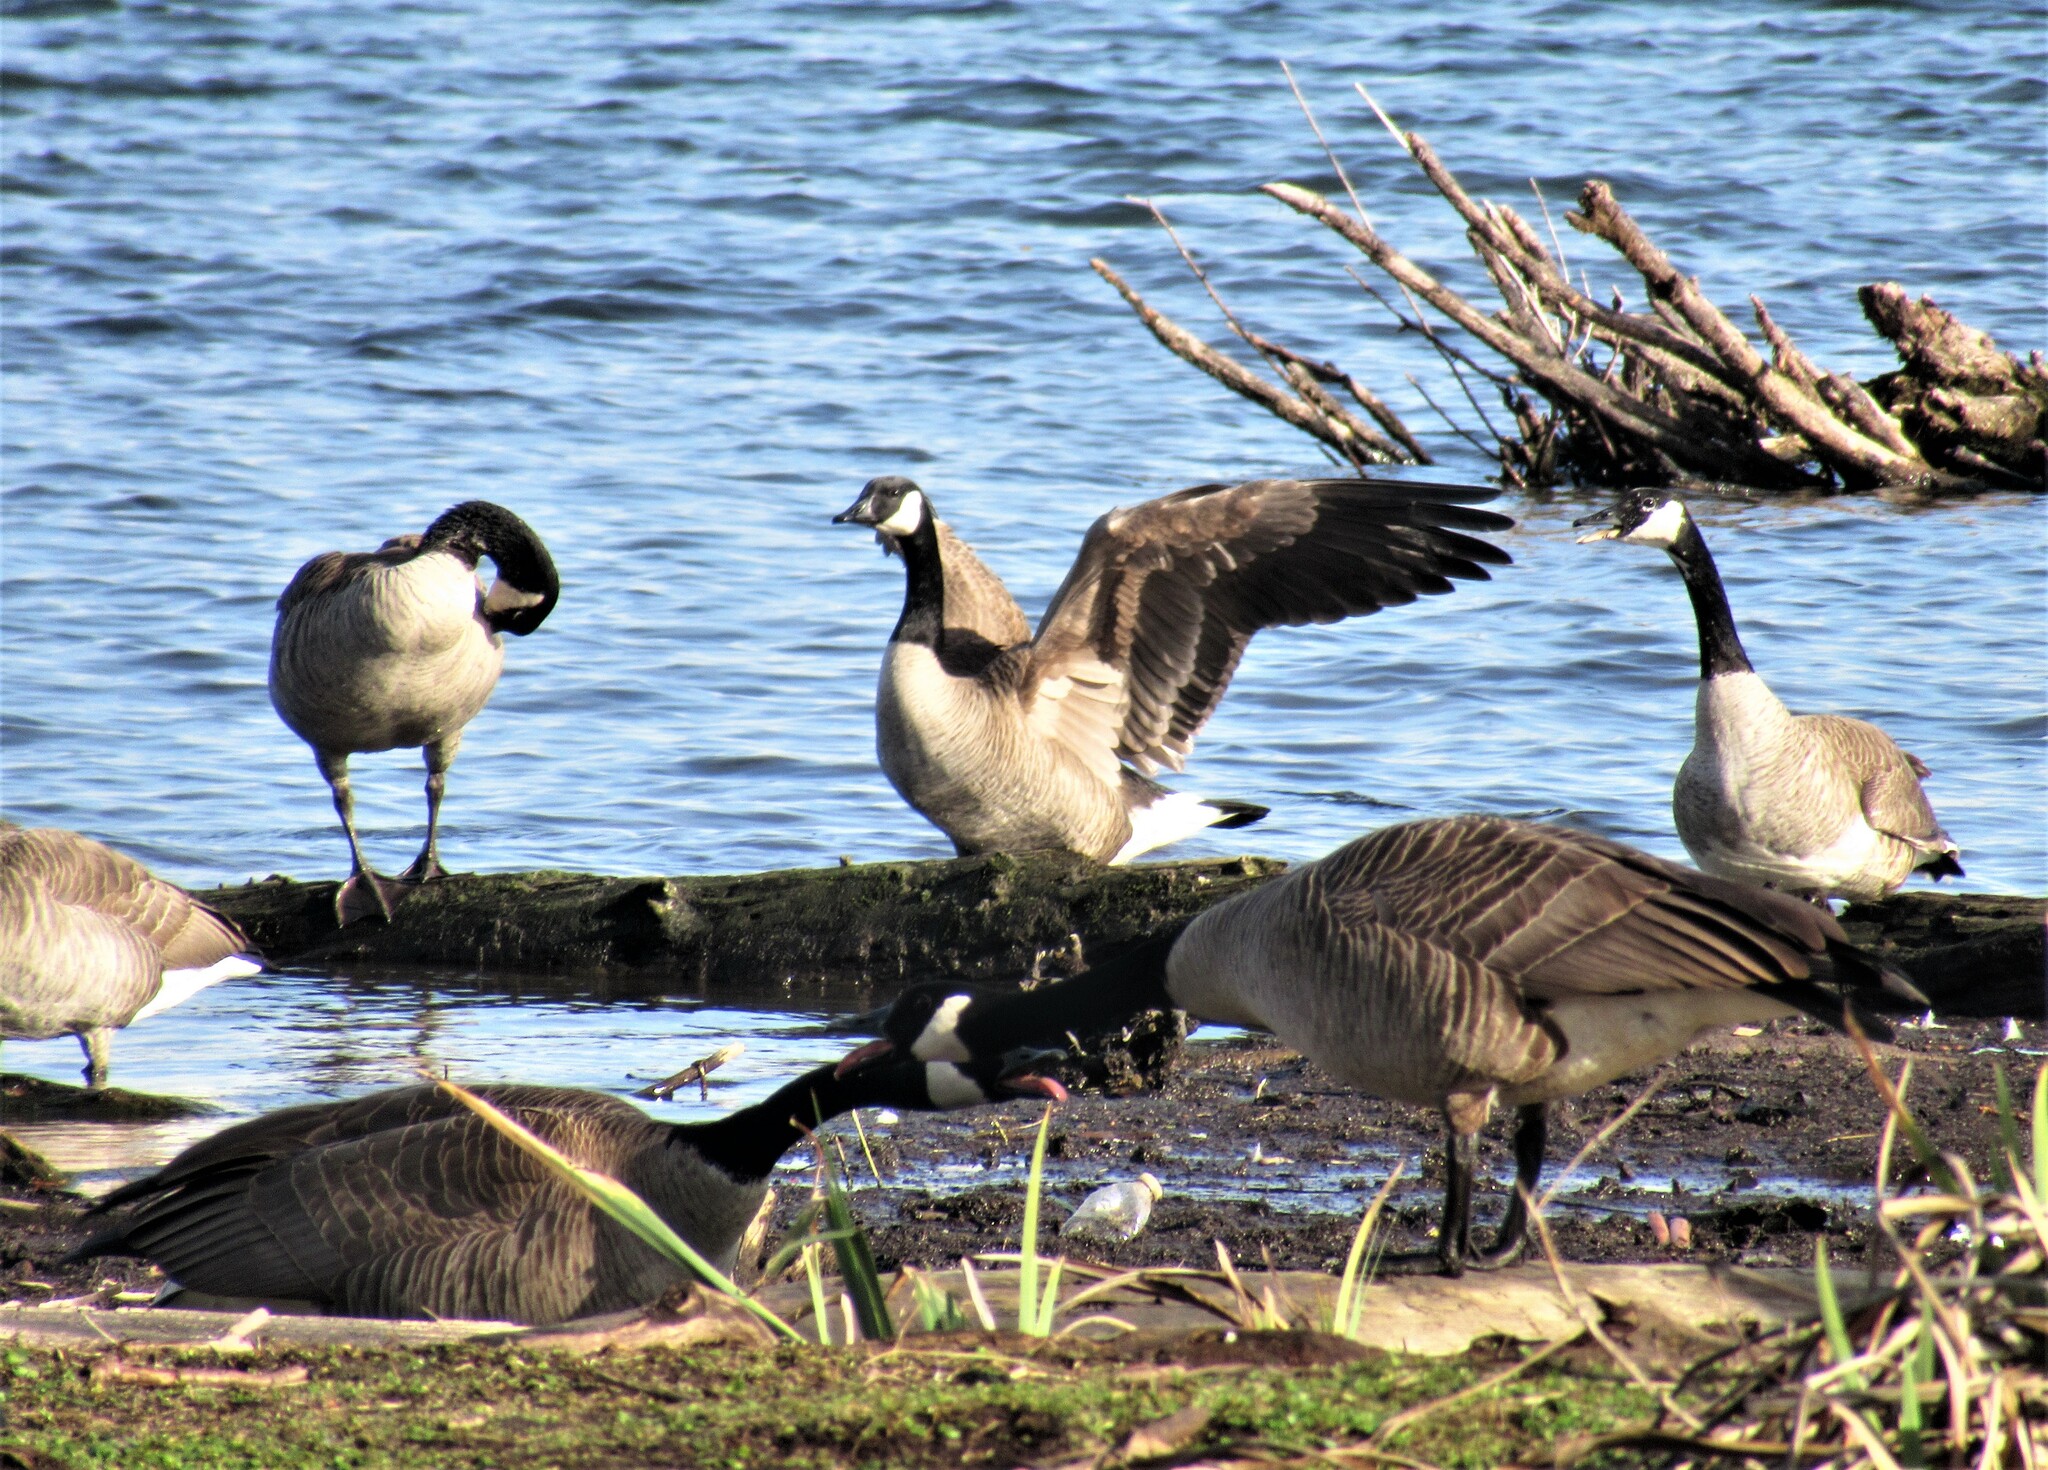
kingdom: Animalia
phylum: Chordata
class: Aves
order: Anseriformes
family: Anatidae
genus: Branta
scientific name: Branta canadensis
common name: Canada goose
